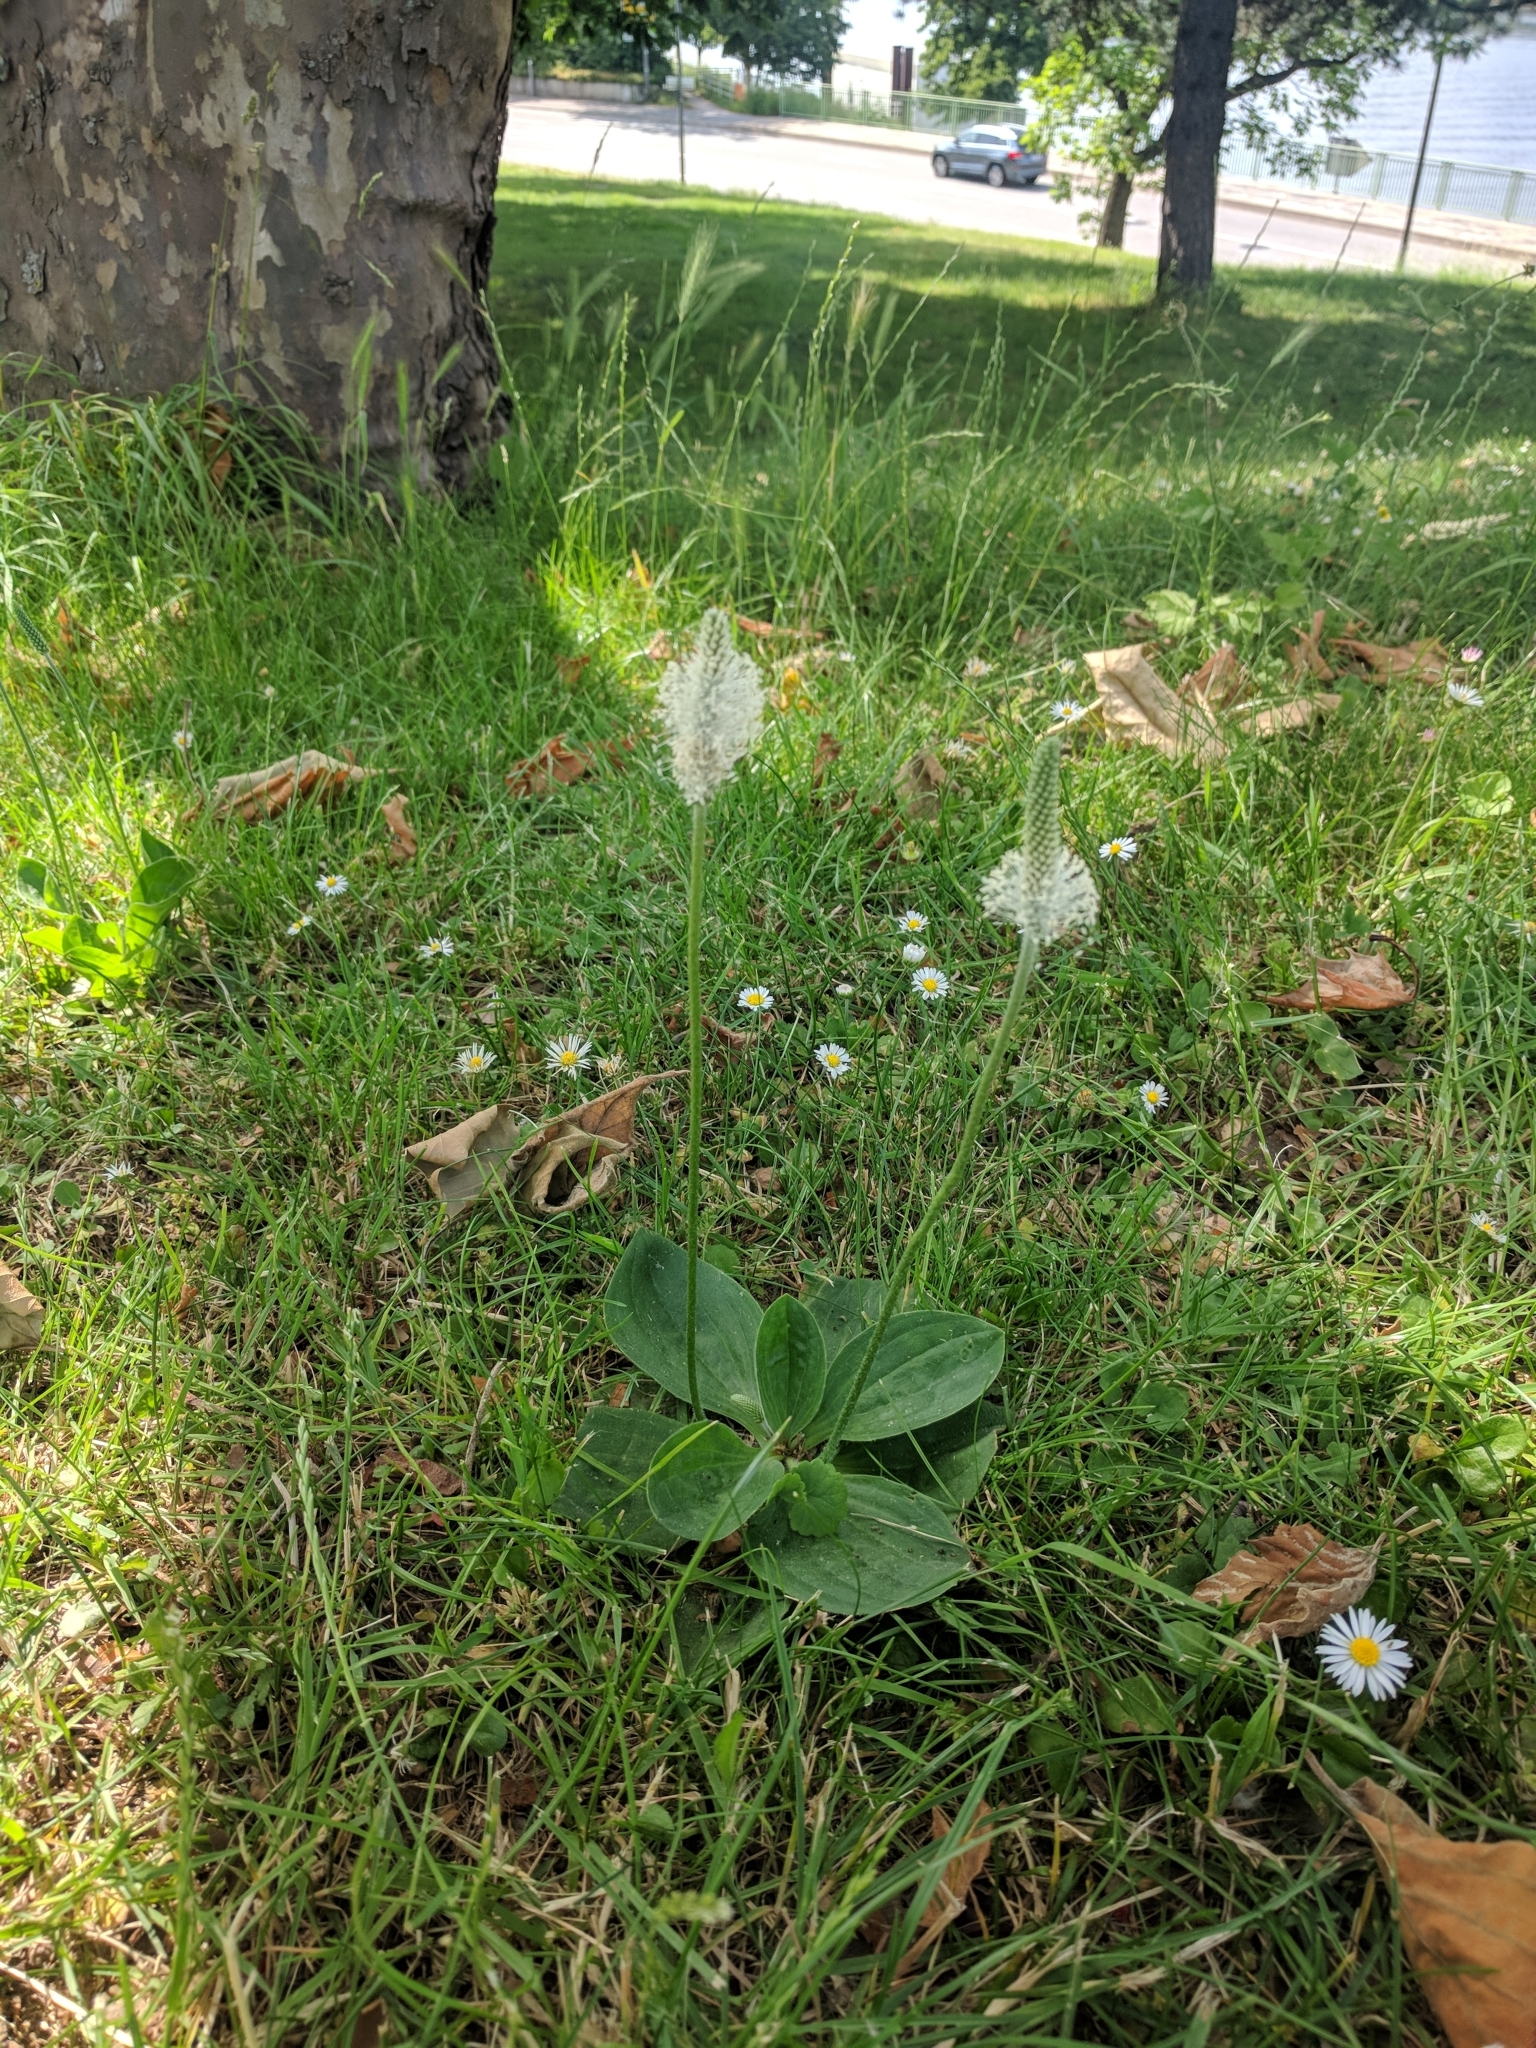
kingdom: Plantae
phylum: Tracheophyta
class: Magnoliopsida
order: Lamiales
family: Plantaginaceae
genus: Plantago
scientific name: Plantago media
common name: Hoary plantain
